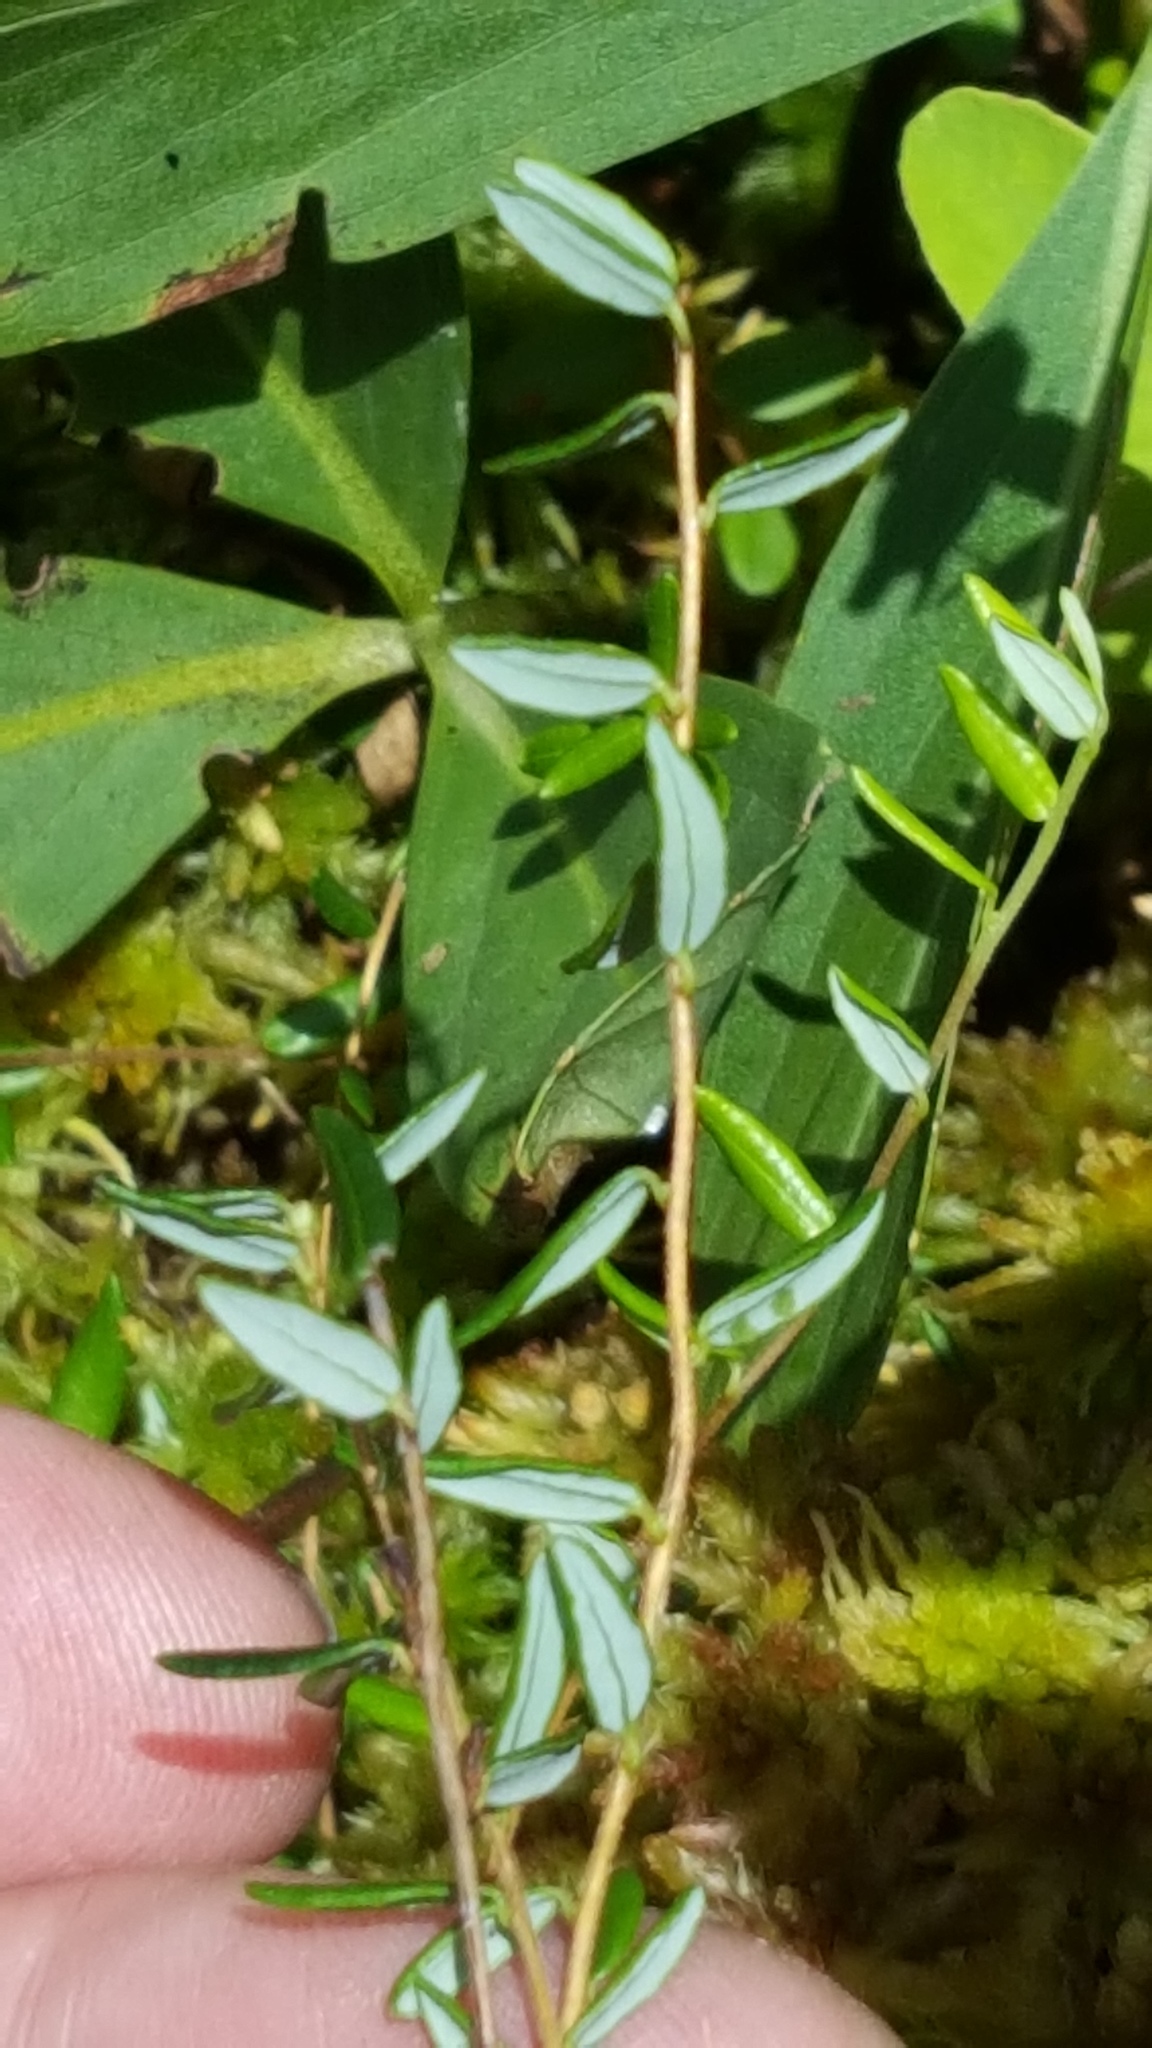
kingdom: Plantae
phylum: Tracheophyta
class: Magnoliopsida
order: Ericales
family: Ericaceae
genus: Vaccinium
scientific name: Vaccinium oxycoccos
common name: Cranberry
